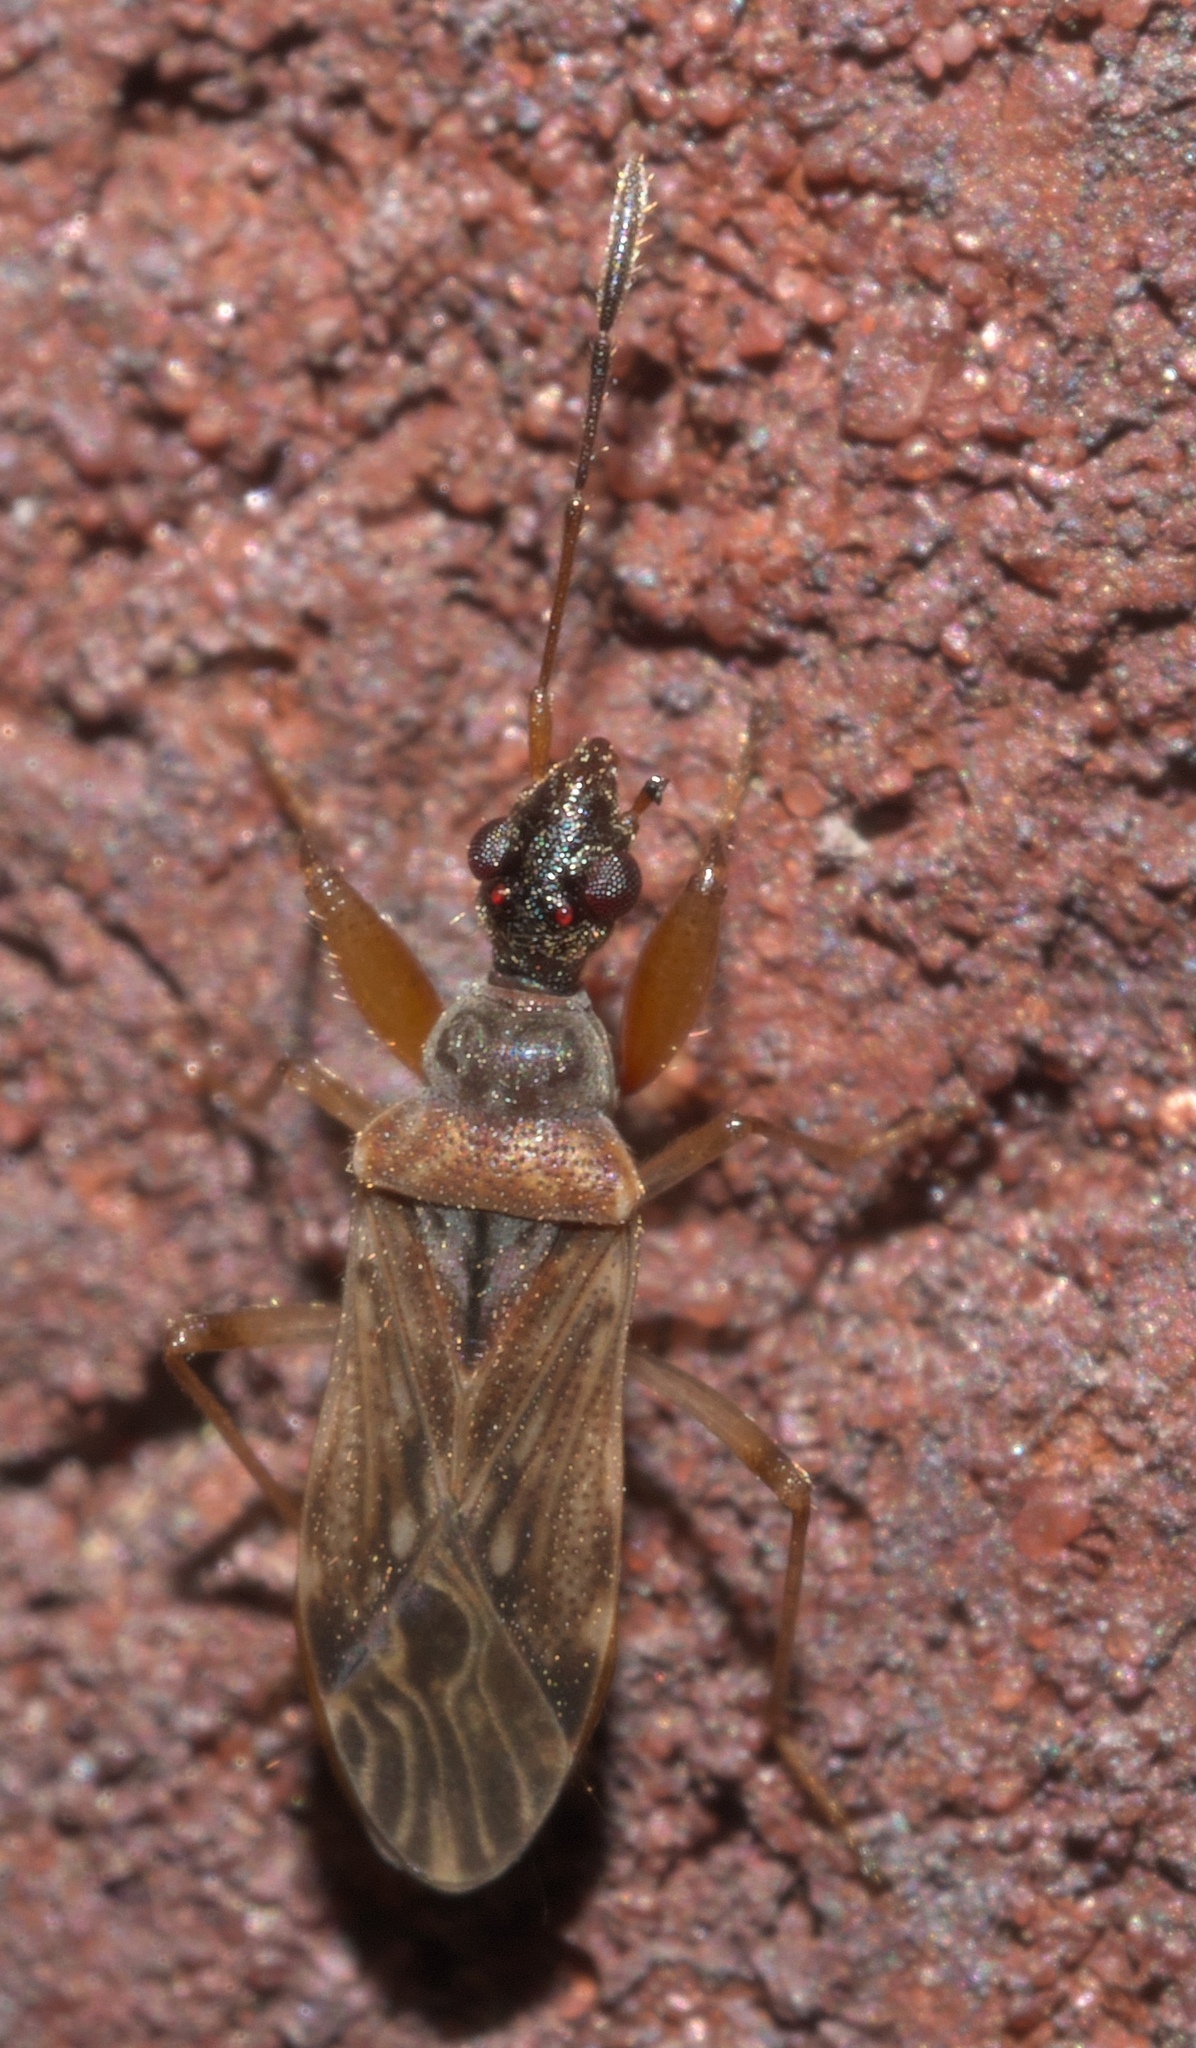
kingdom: Animalia
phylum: Arthropoda
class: Insecta
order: Hemiptera
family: Rhyparochromidae
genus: Heraeus
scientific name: Heraeus plebejus
